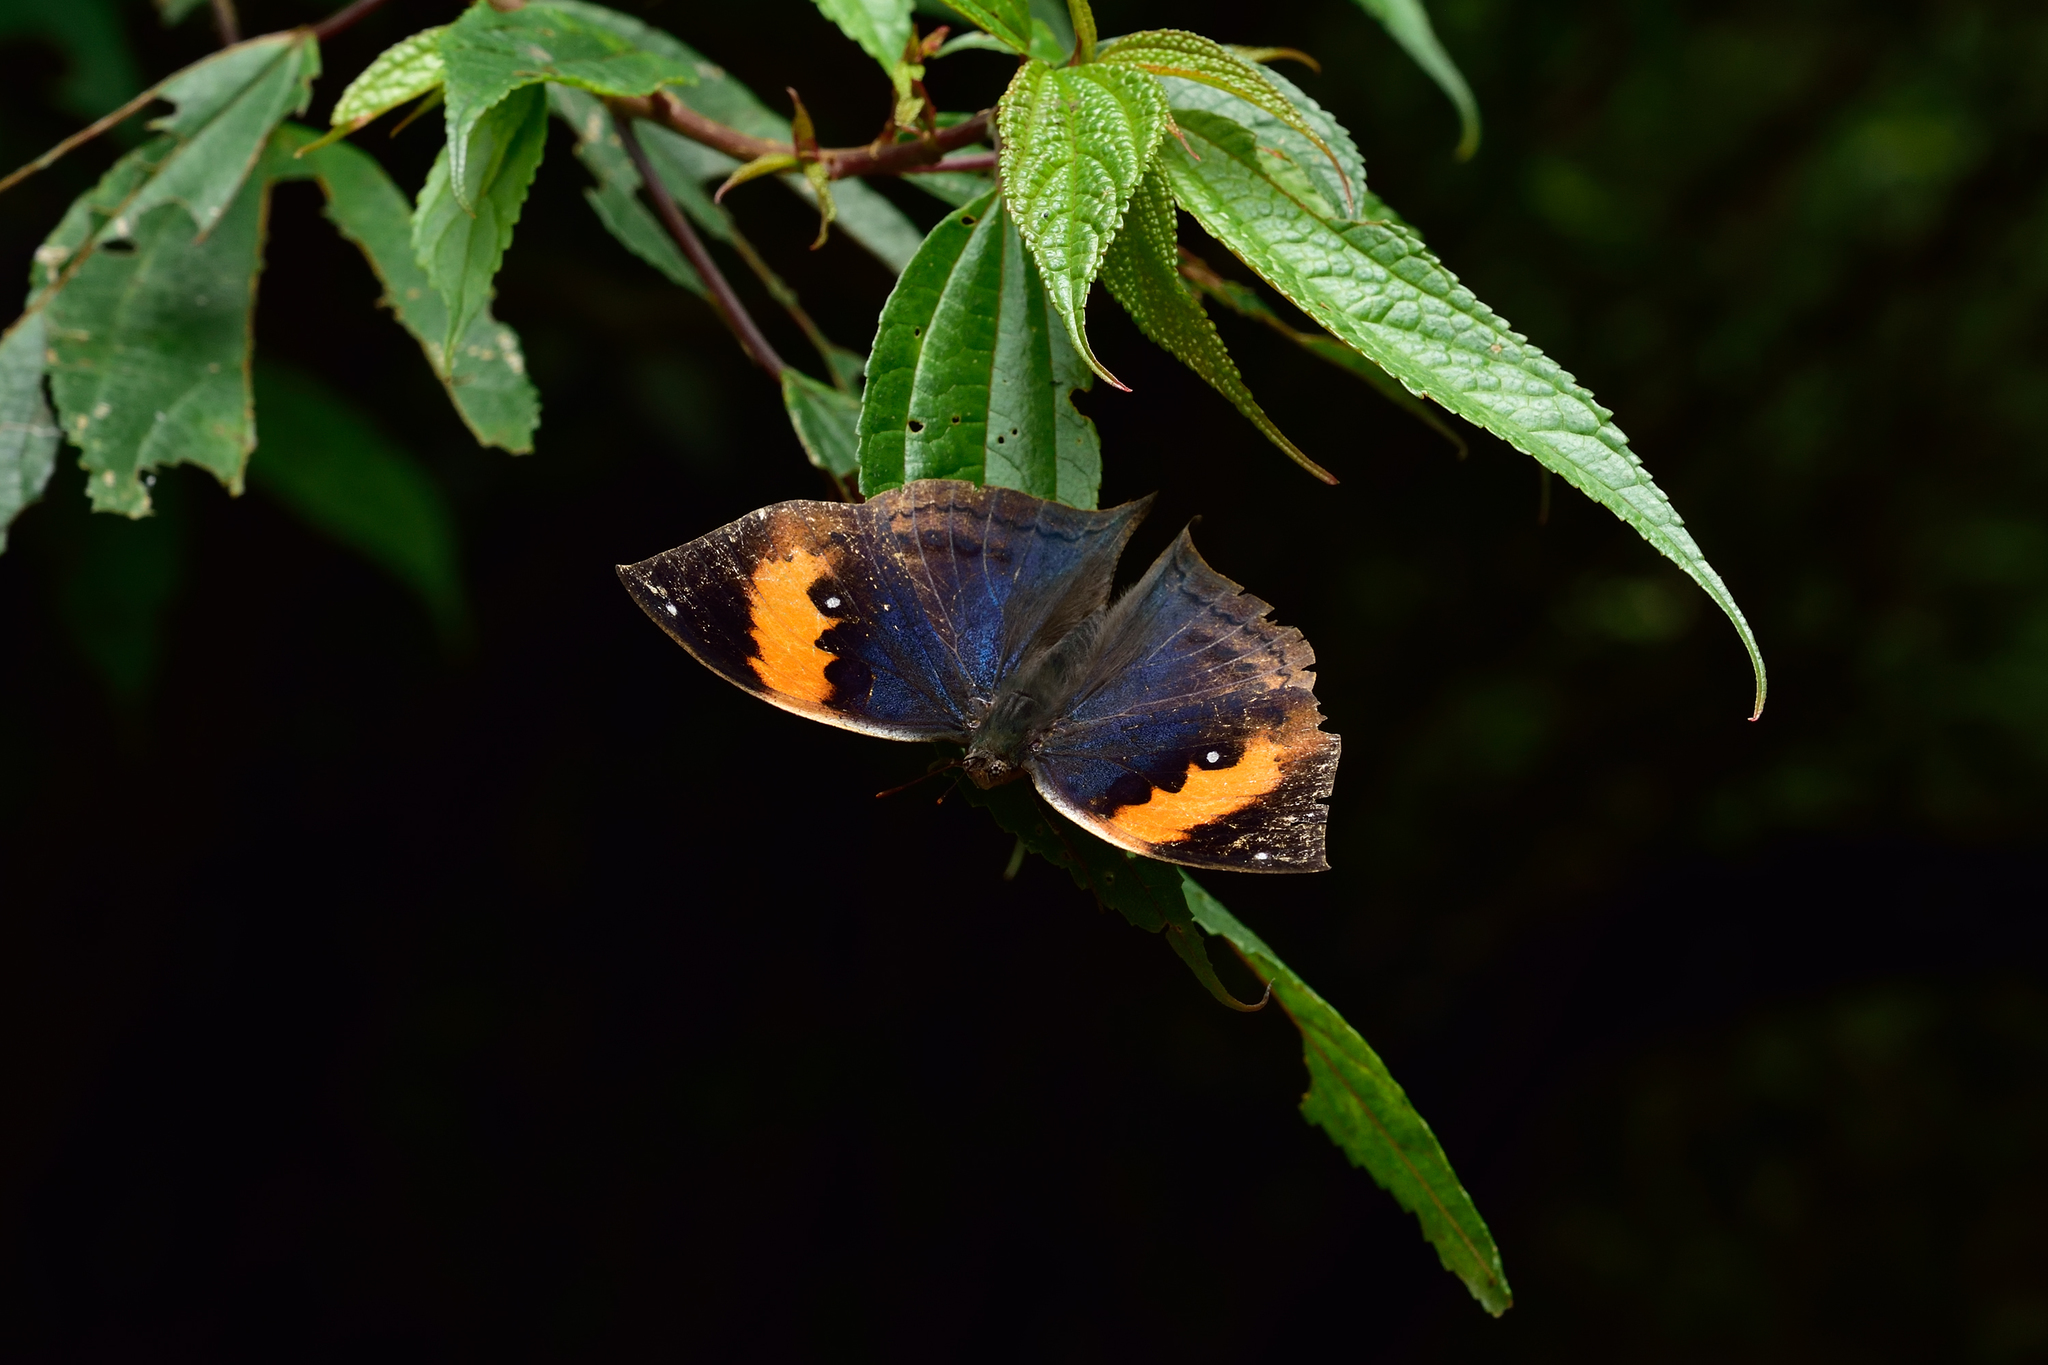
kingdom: Animalia
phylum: Arthropoda
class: Insecta
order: Lepidoptera
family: Nymphalidae
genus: Kallima
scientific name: Kallima inachus
